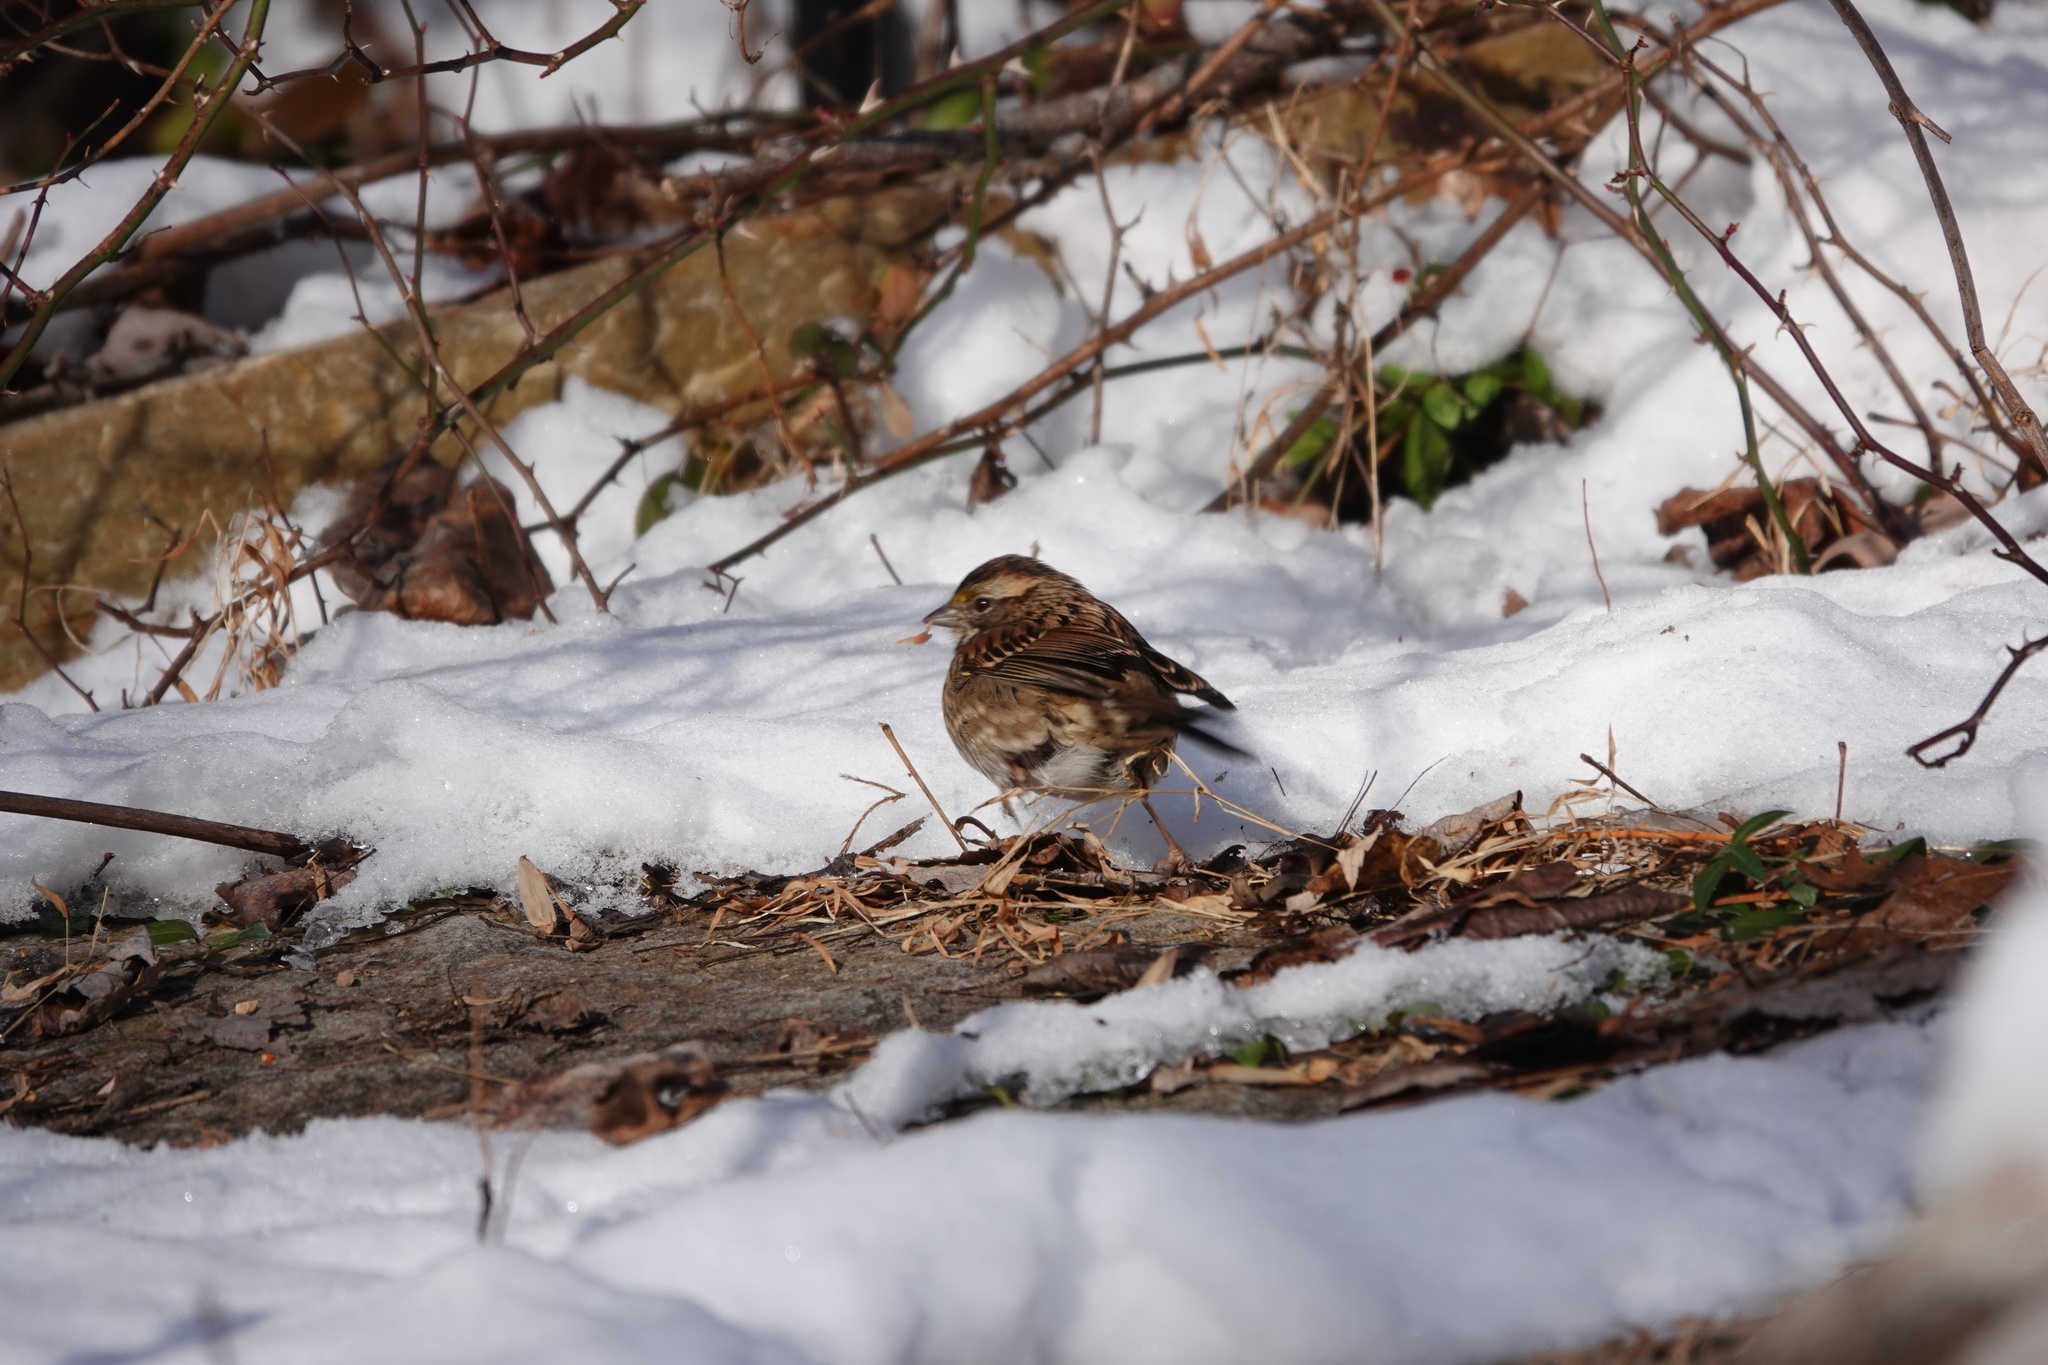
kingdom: Animalia
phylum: Chordata
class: Aves
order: Passeriformes
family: Passerellidae
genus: Zonotrichia
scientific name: Zonotrichia albicollis
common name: White-throated sparrow
